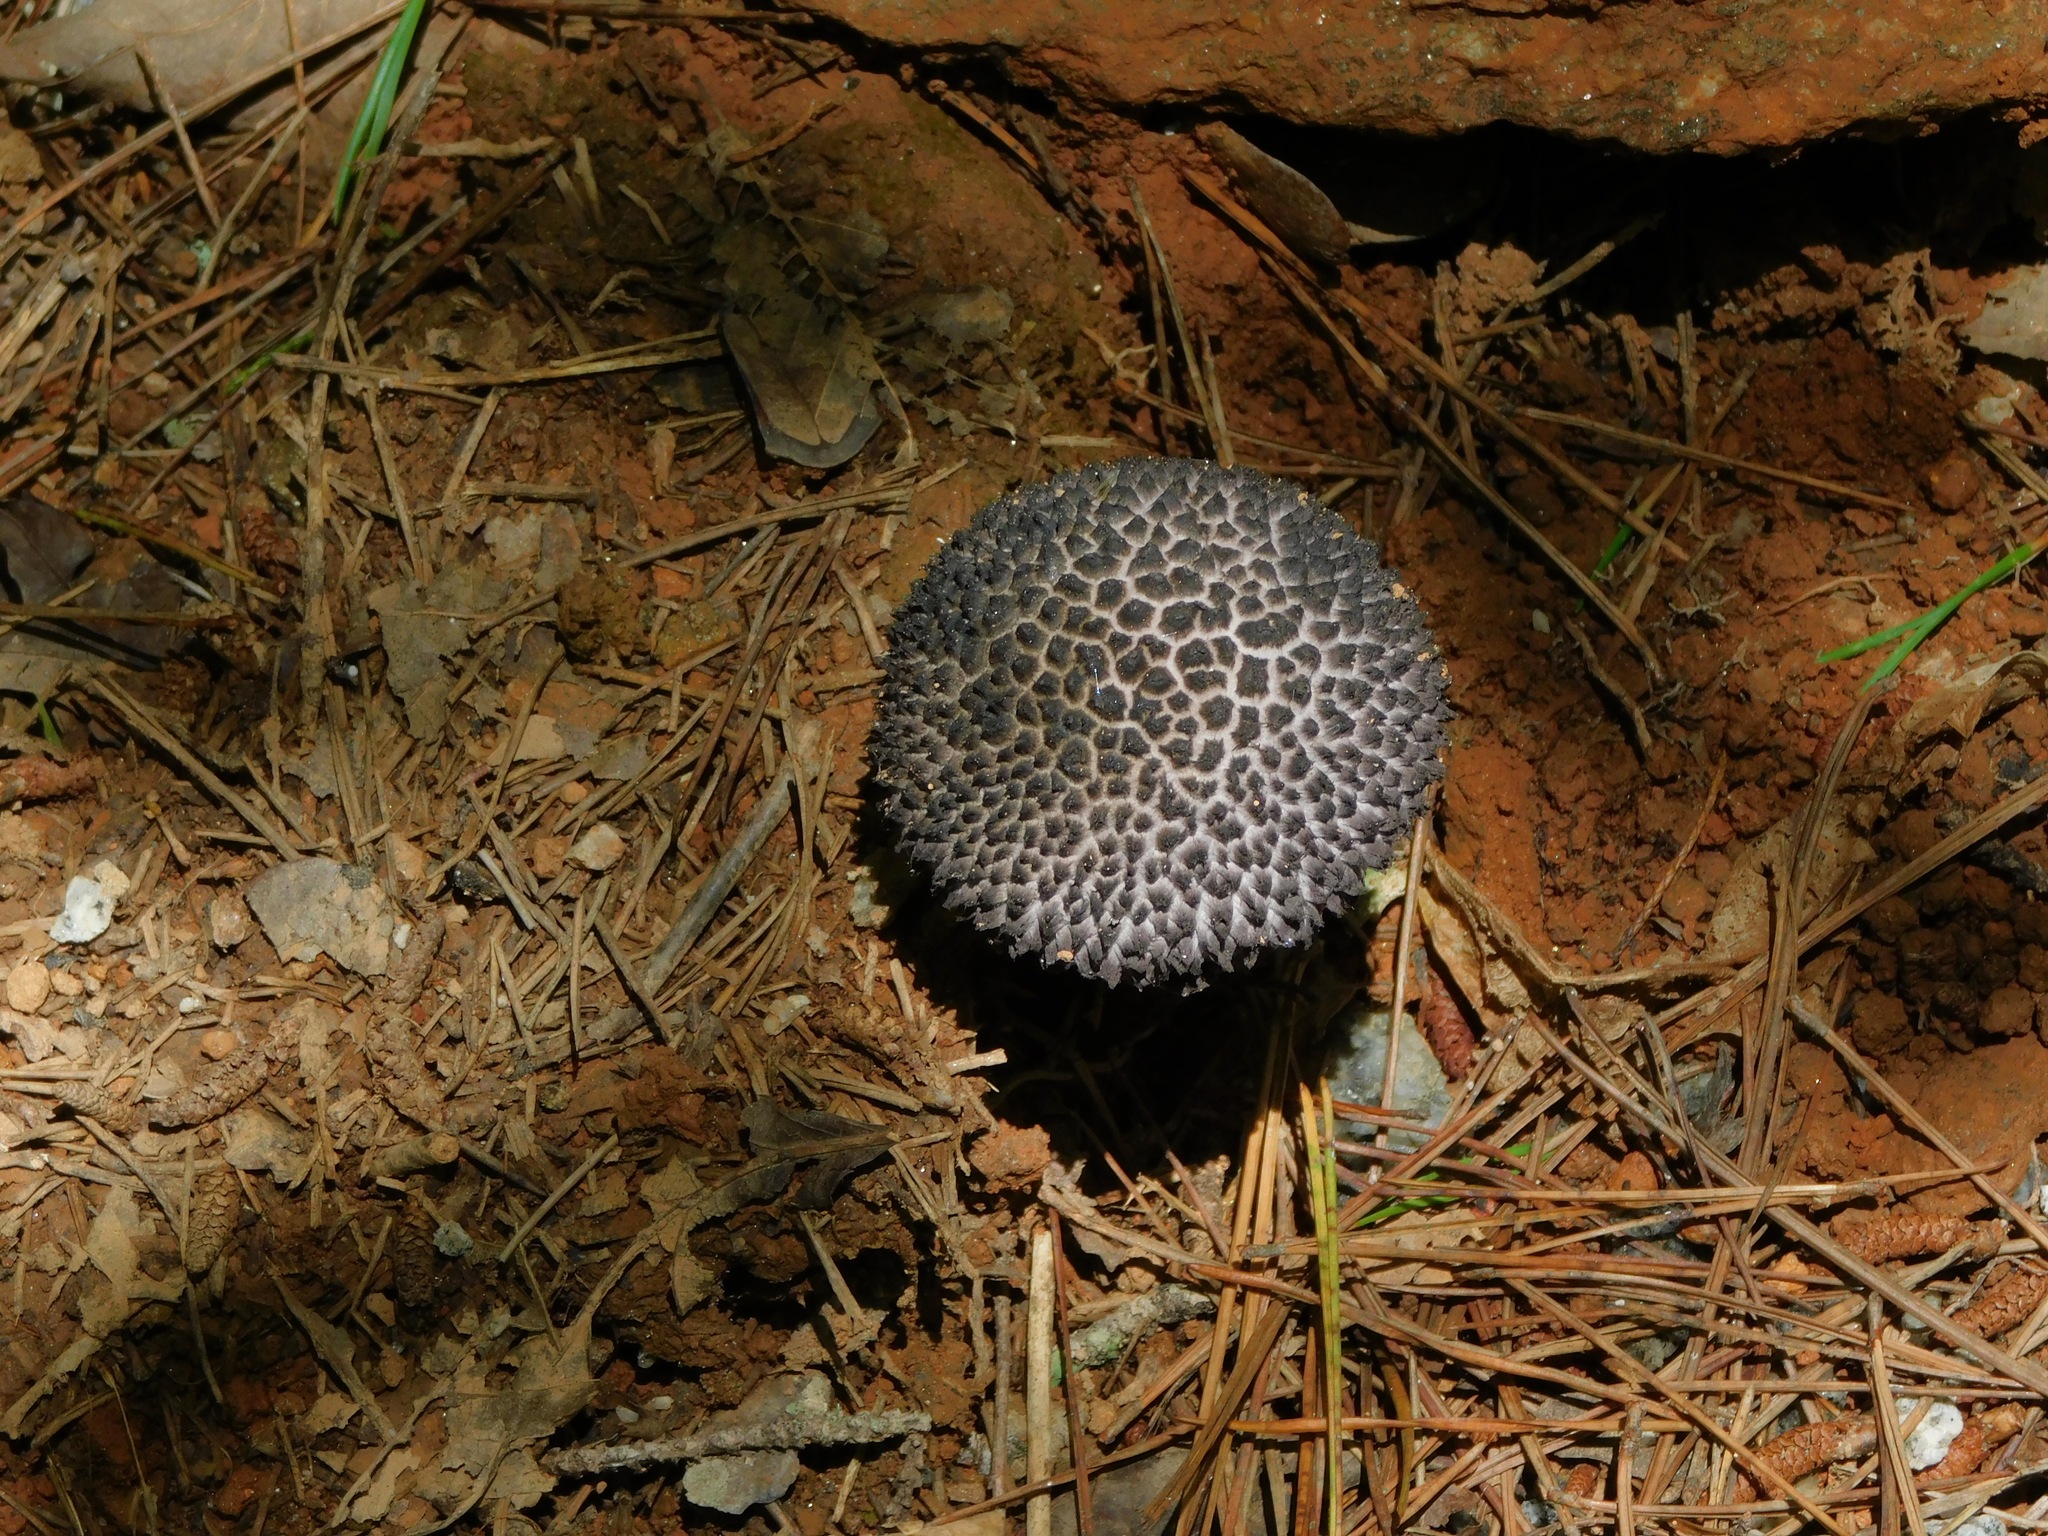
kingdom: Fungi
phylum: Basidiomycota
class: Agaricomycetes
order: Boletales
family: Boletaceae
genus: Strobilomyces
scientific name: Strobilomyces strobilaceus
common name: Old man of the woods
